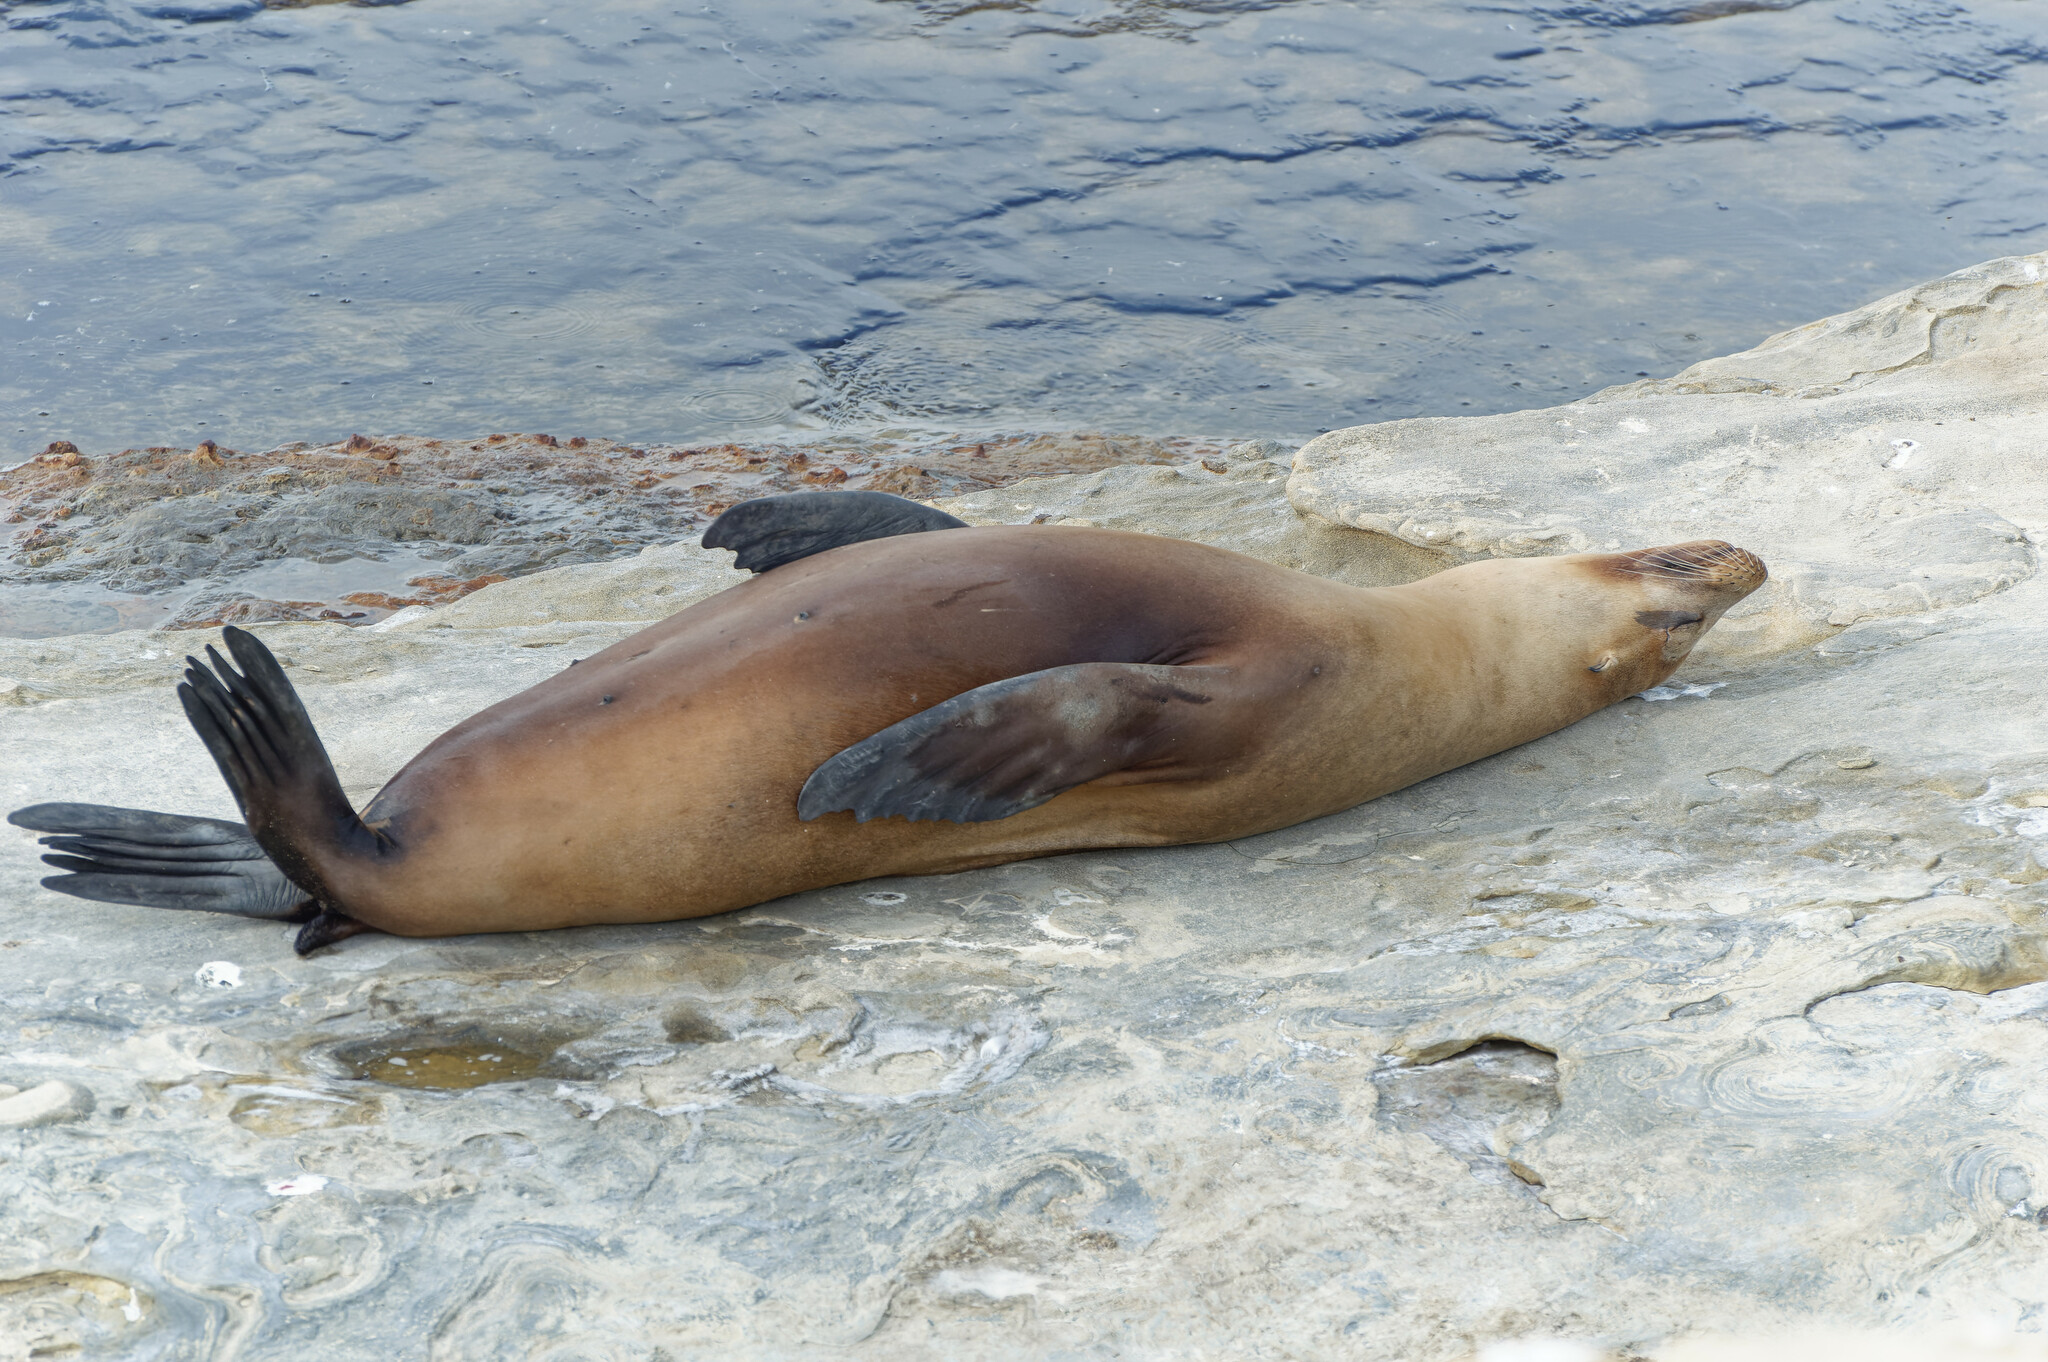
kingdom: Animalia
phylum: Chordata
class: Mammalia
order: Carnivora
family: Otariidae
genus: Zalophus
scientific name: Zalophus californianus
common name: California sea lion
